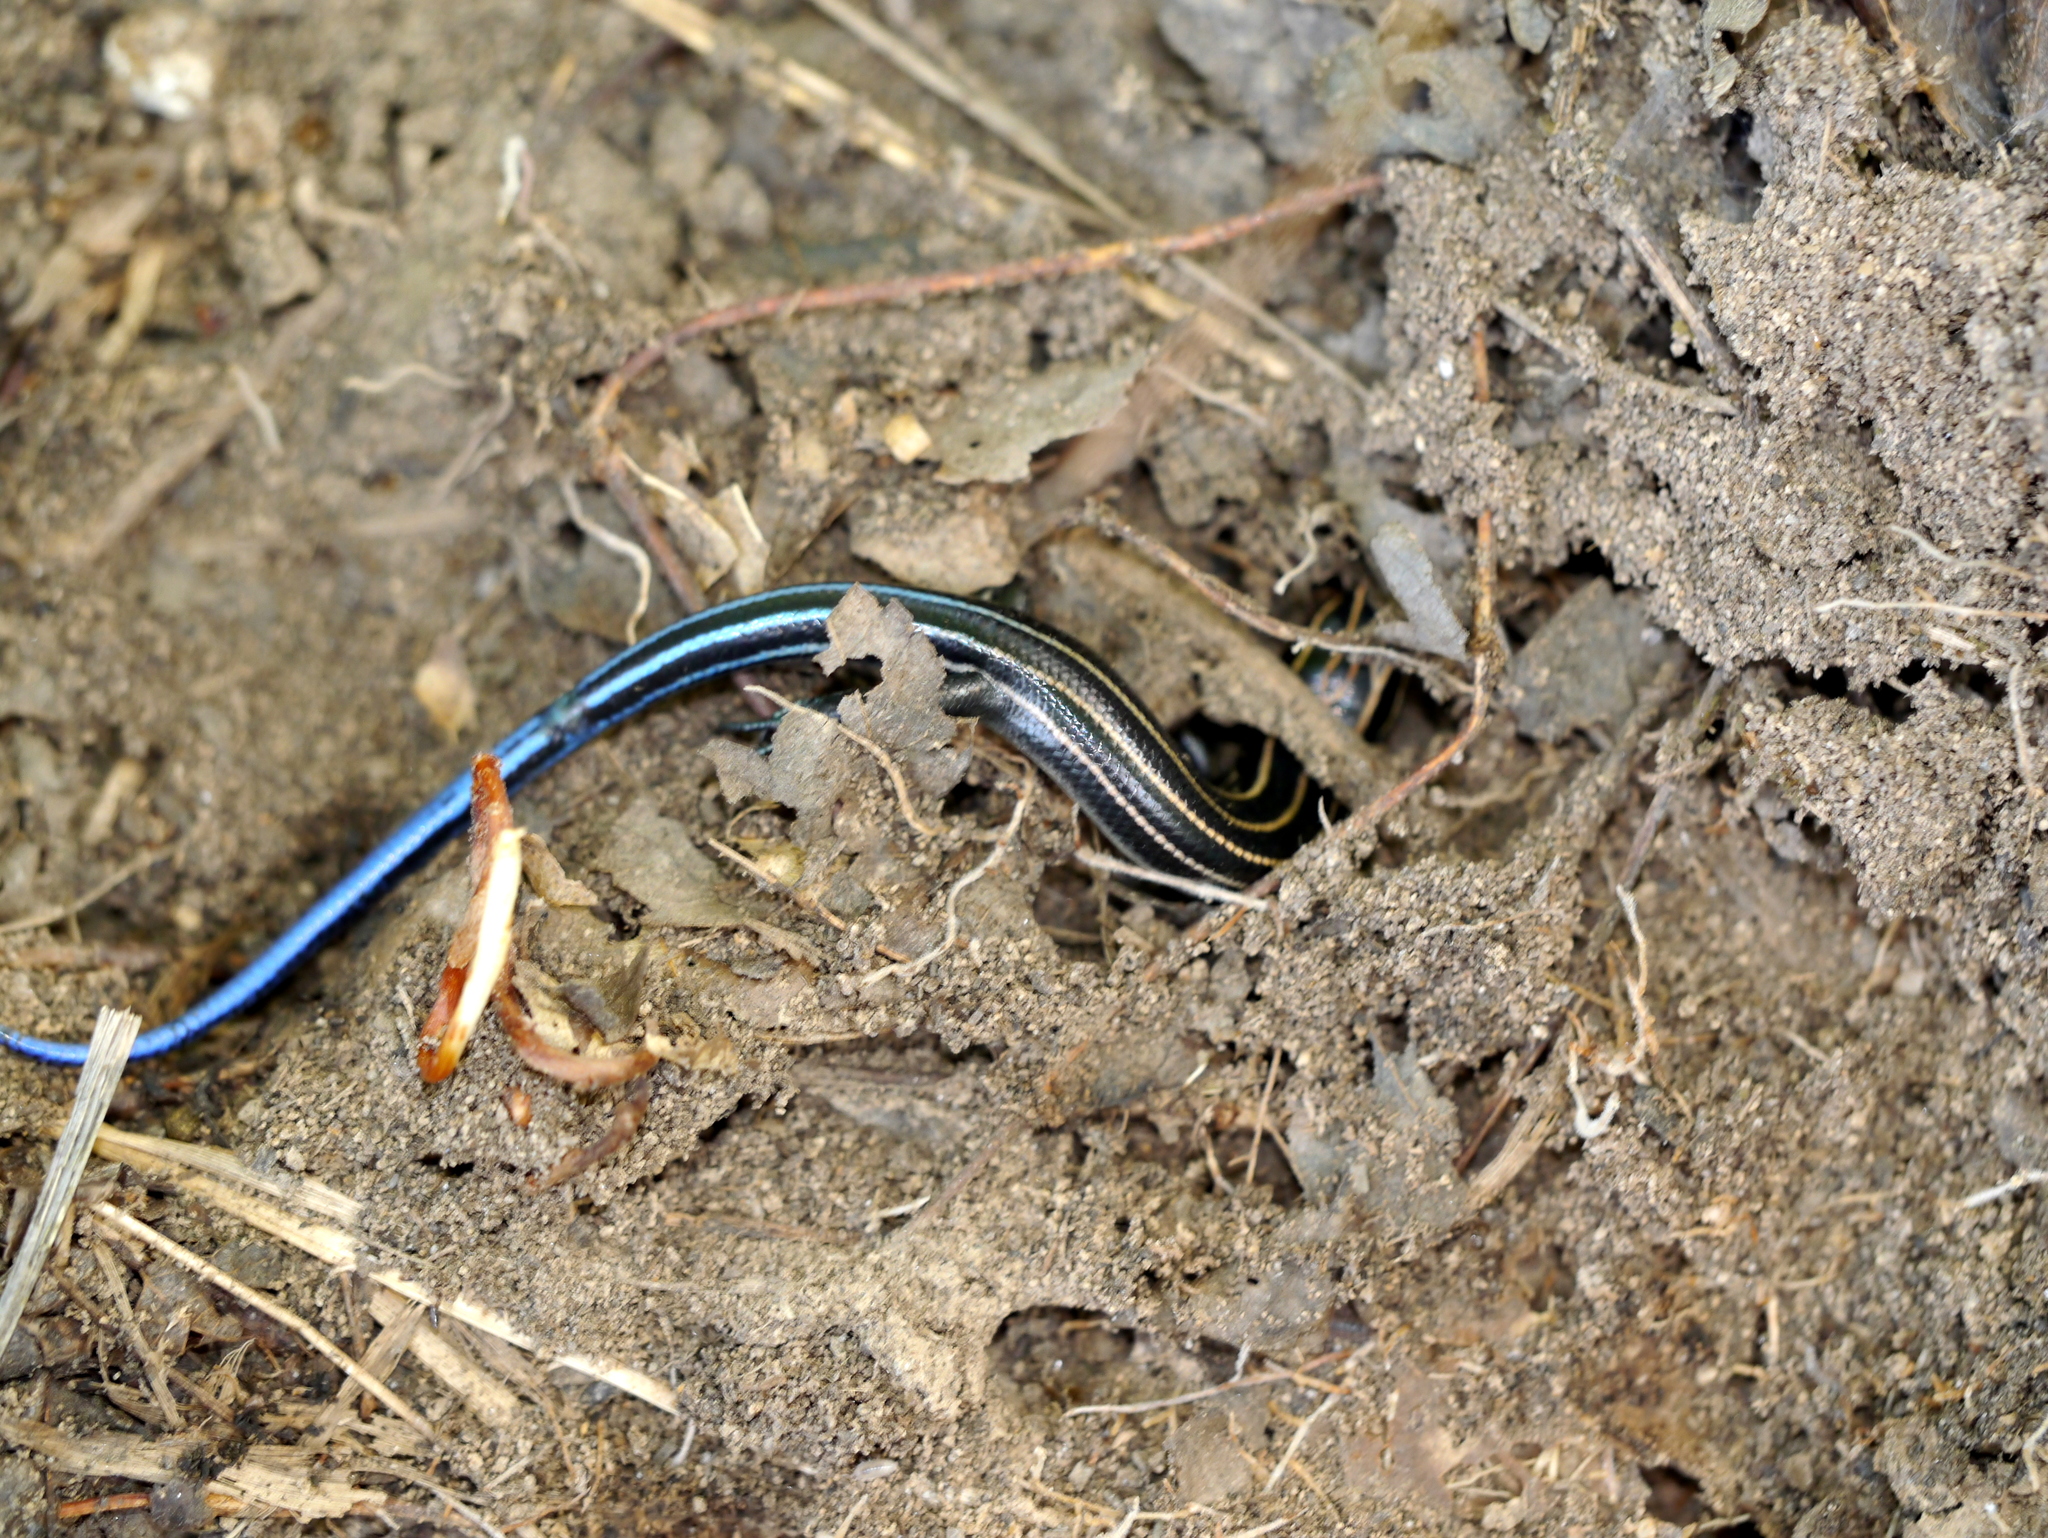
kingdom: Animalia
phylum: Chordata
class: Squamata
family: Scincidae
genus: Plestiodon
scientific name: Plestiodon fasciatus
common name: Five-lined skink
